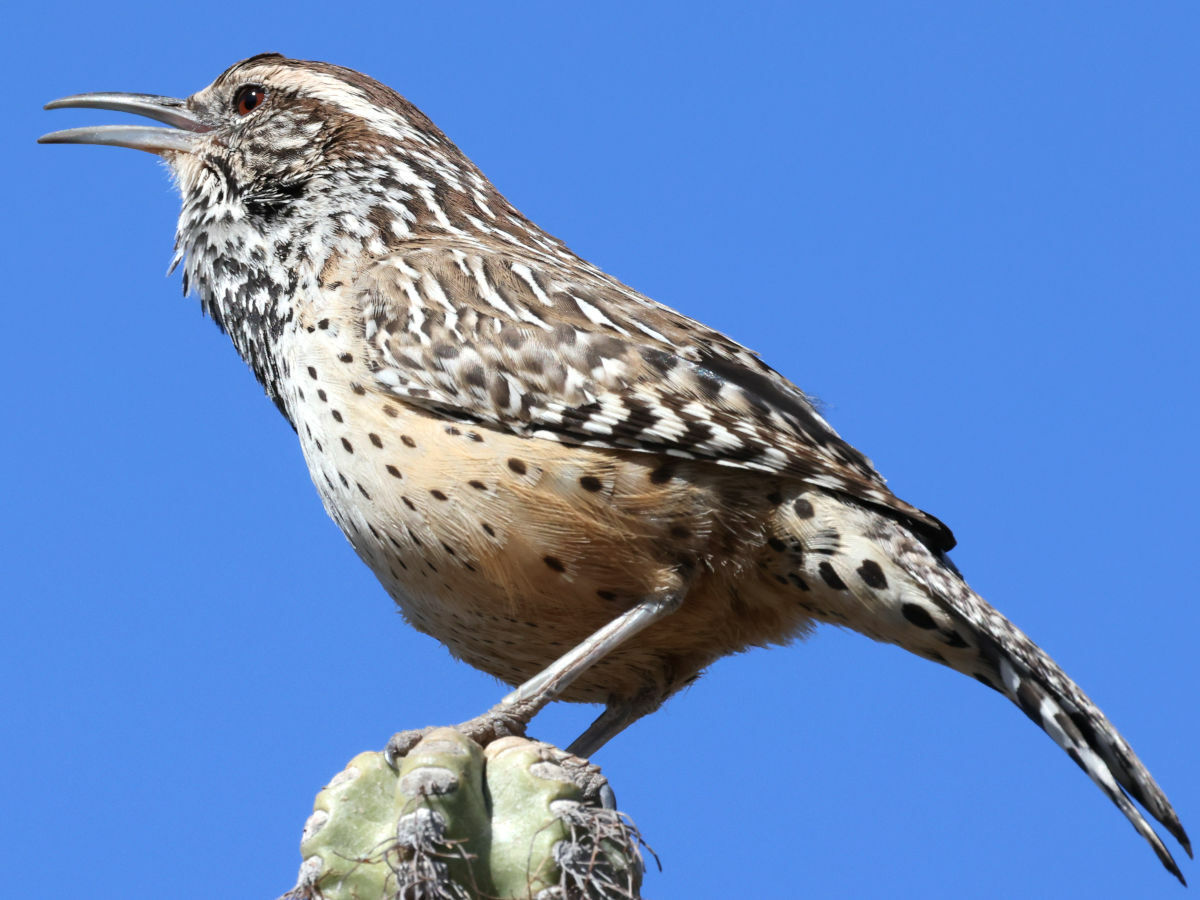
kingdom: Animalia
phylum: Chordata
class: Aves
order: Passeriformes
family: Troglodytidae
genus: Campylorhynchus
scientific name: Campylorhynchus brunneicapillus
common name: Cactus wren
